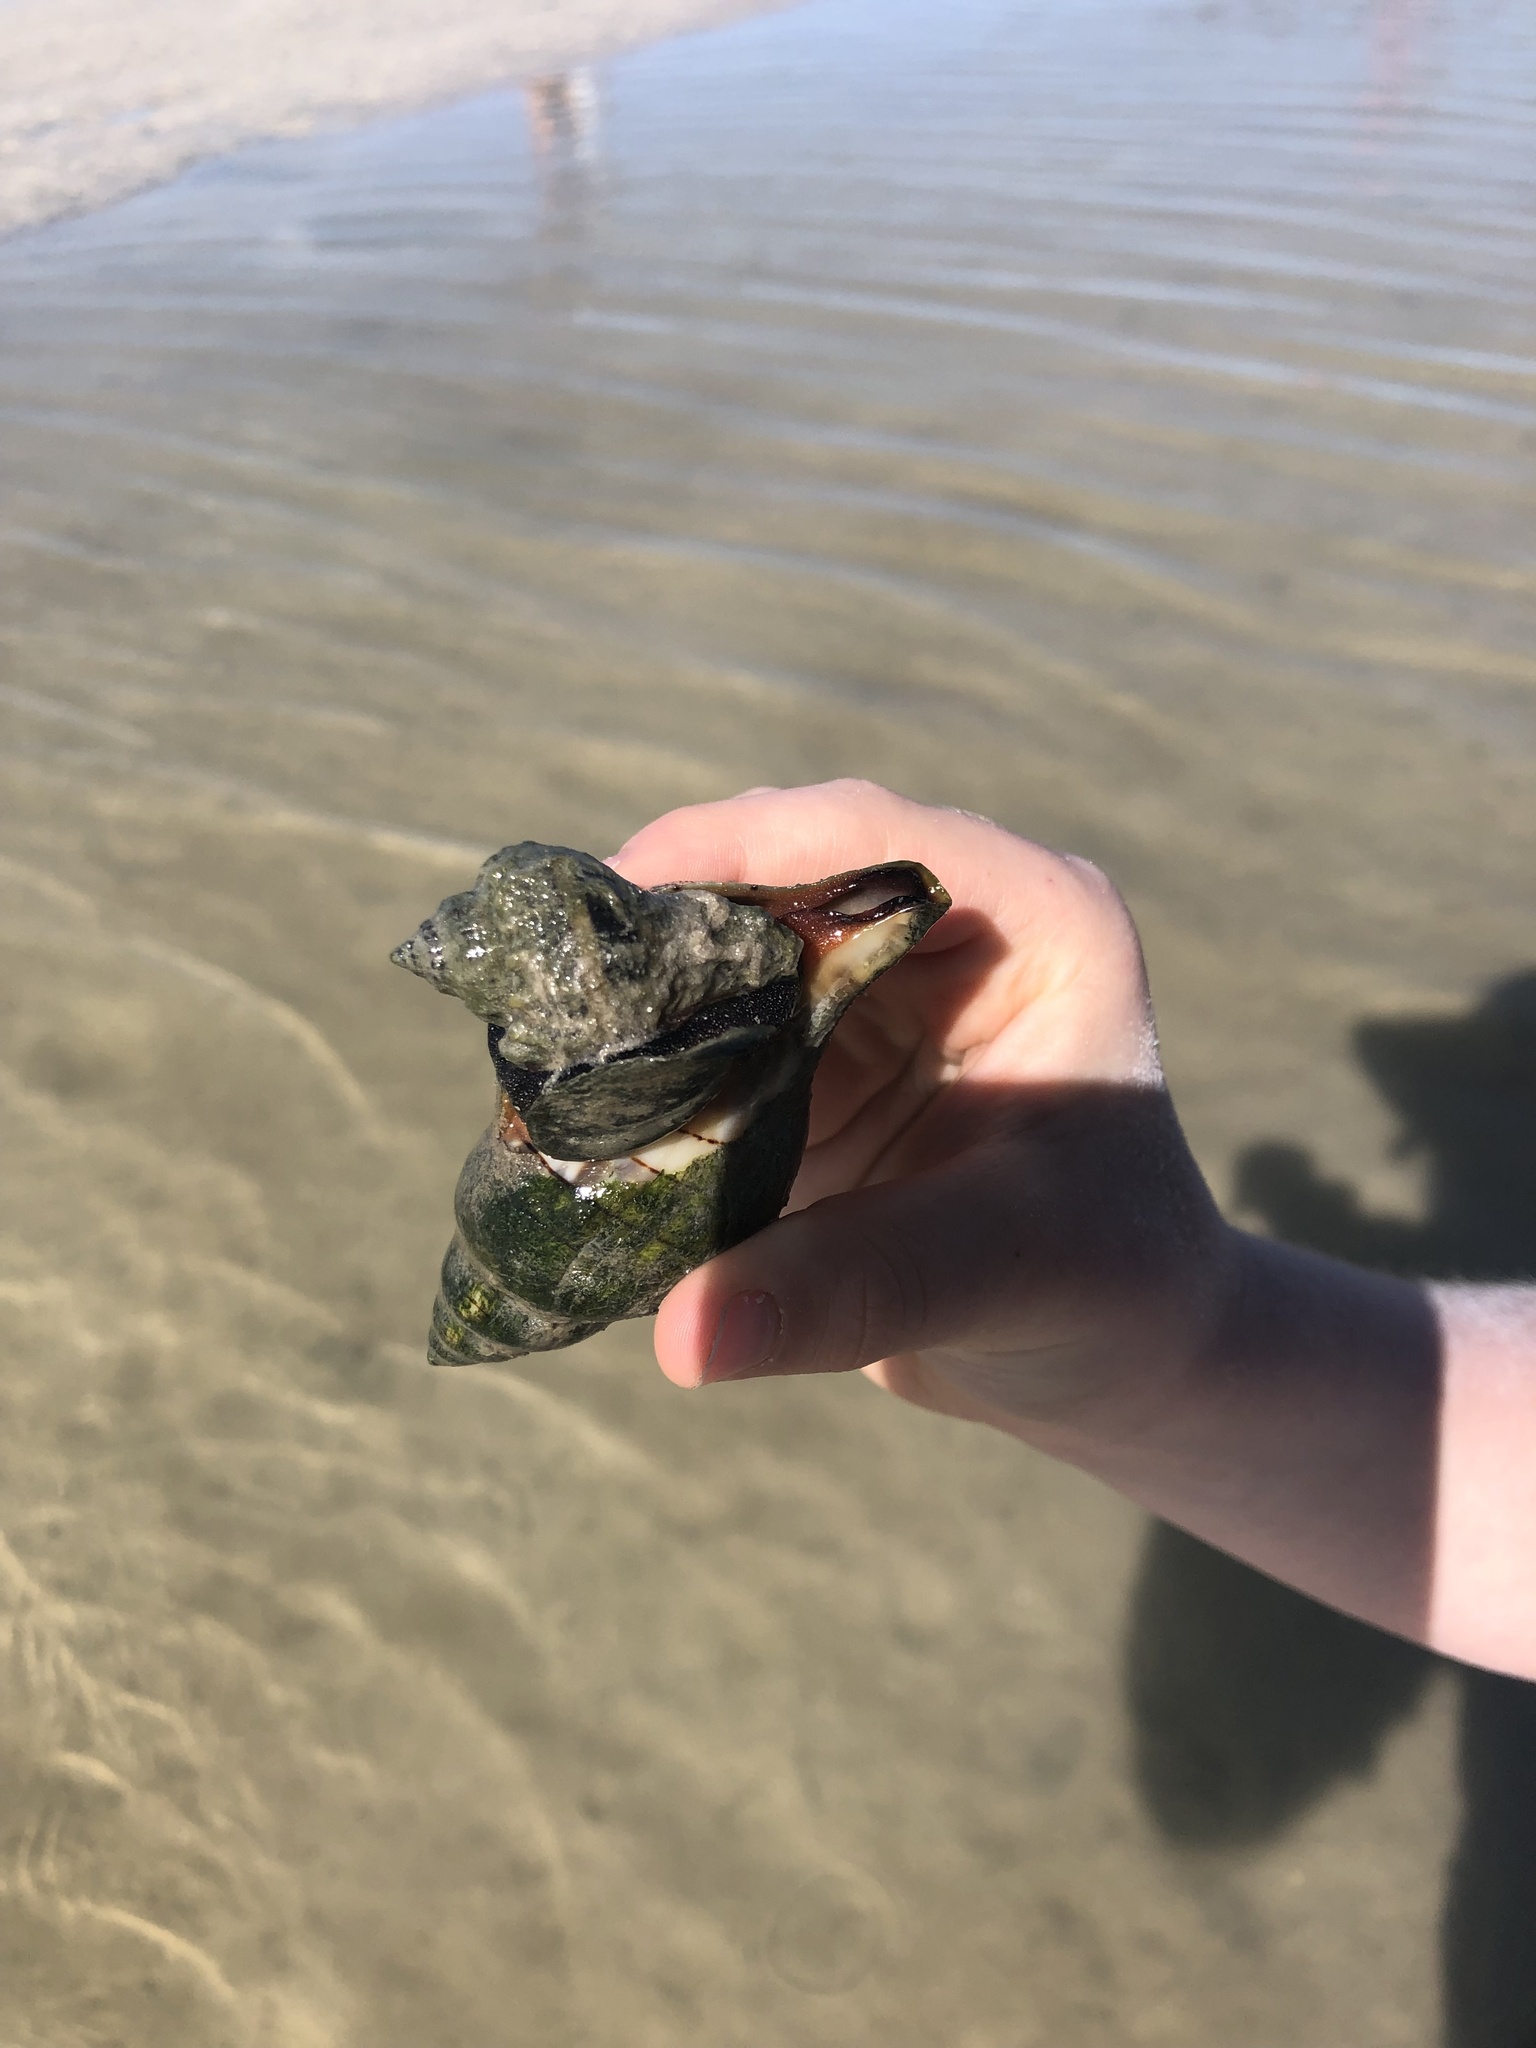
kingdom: Animalia
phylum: Mollusca
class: Gastropoda
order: Neogastropoda
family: Fasciolariidae
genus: Cinctura
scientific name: Cinctura hunteria
